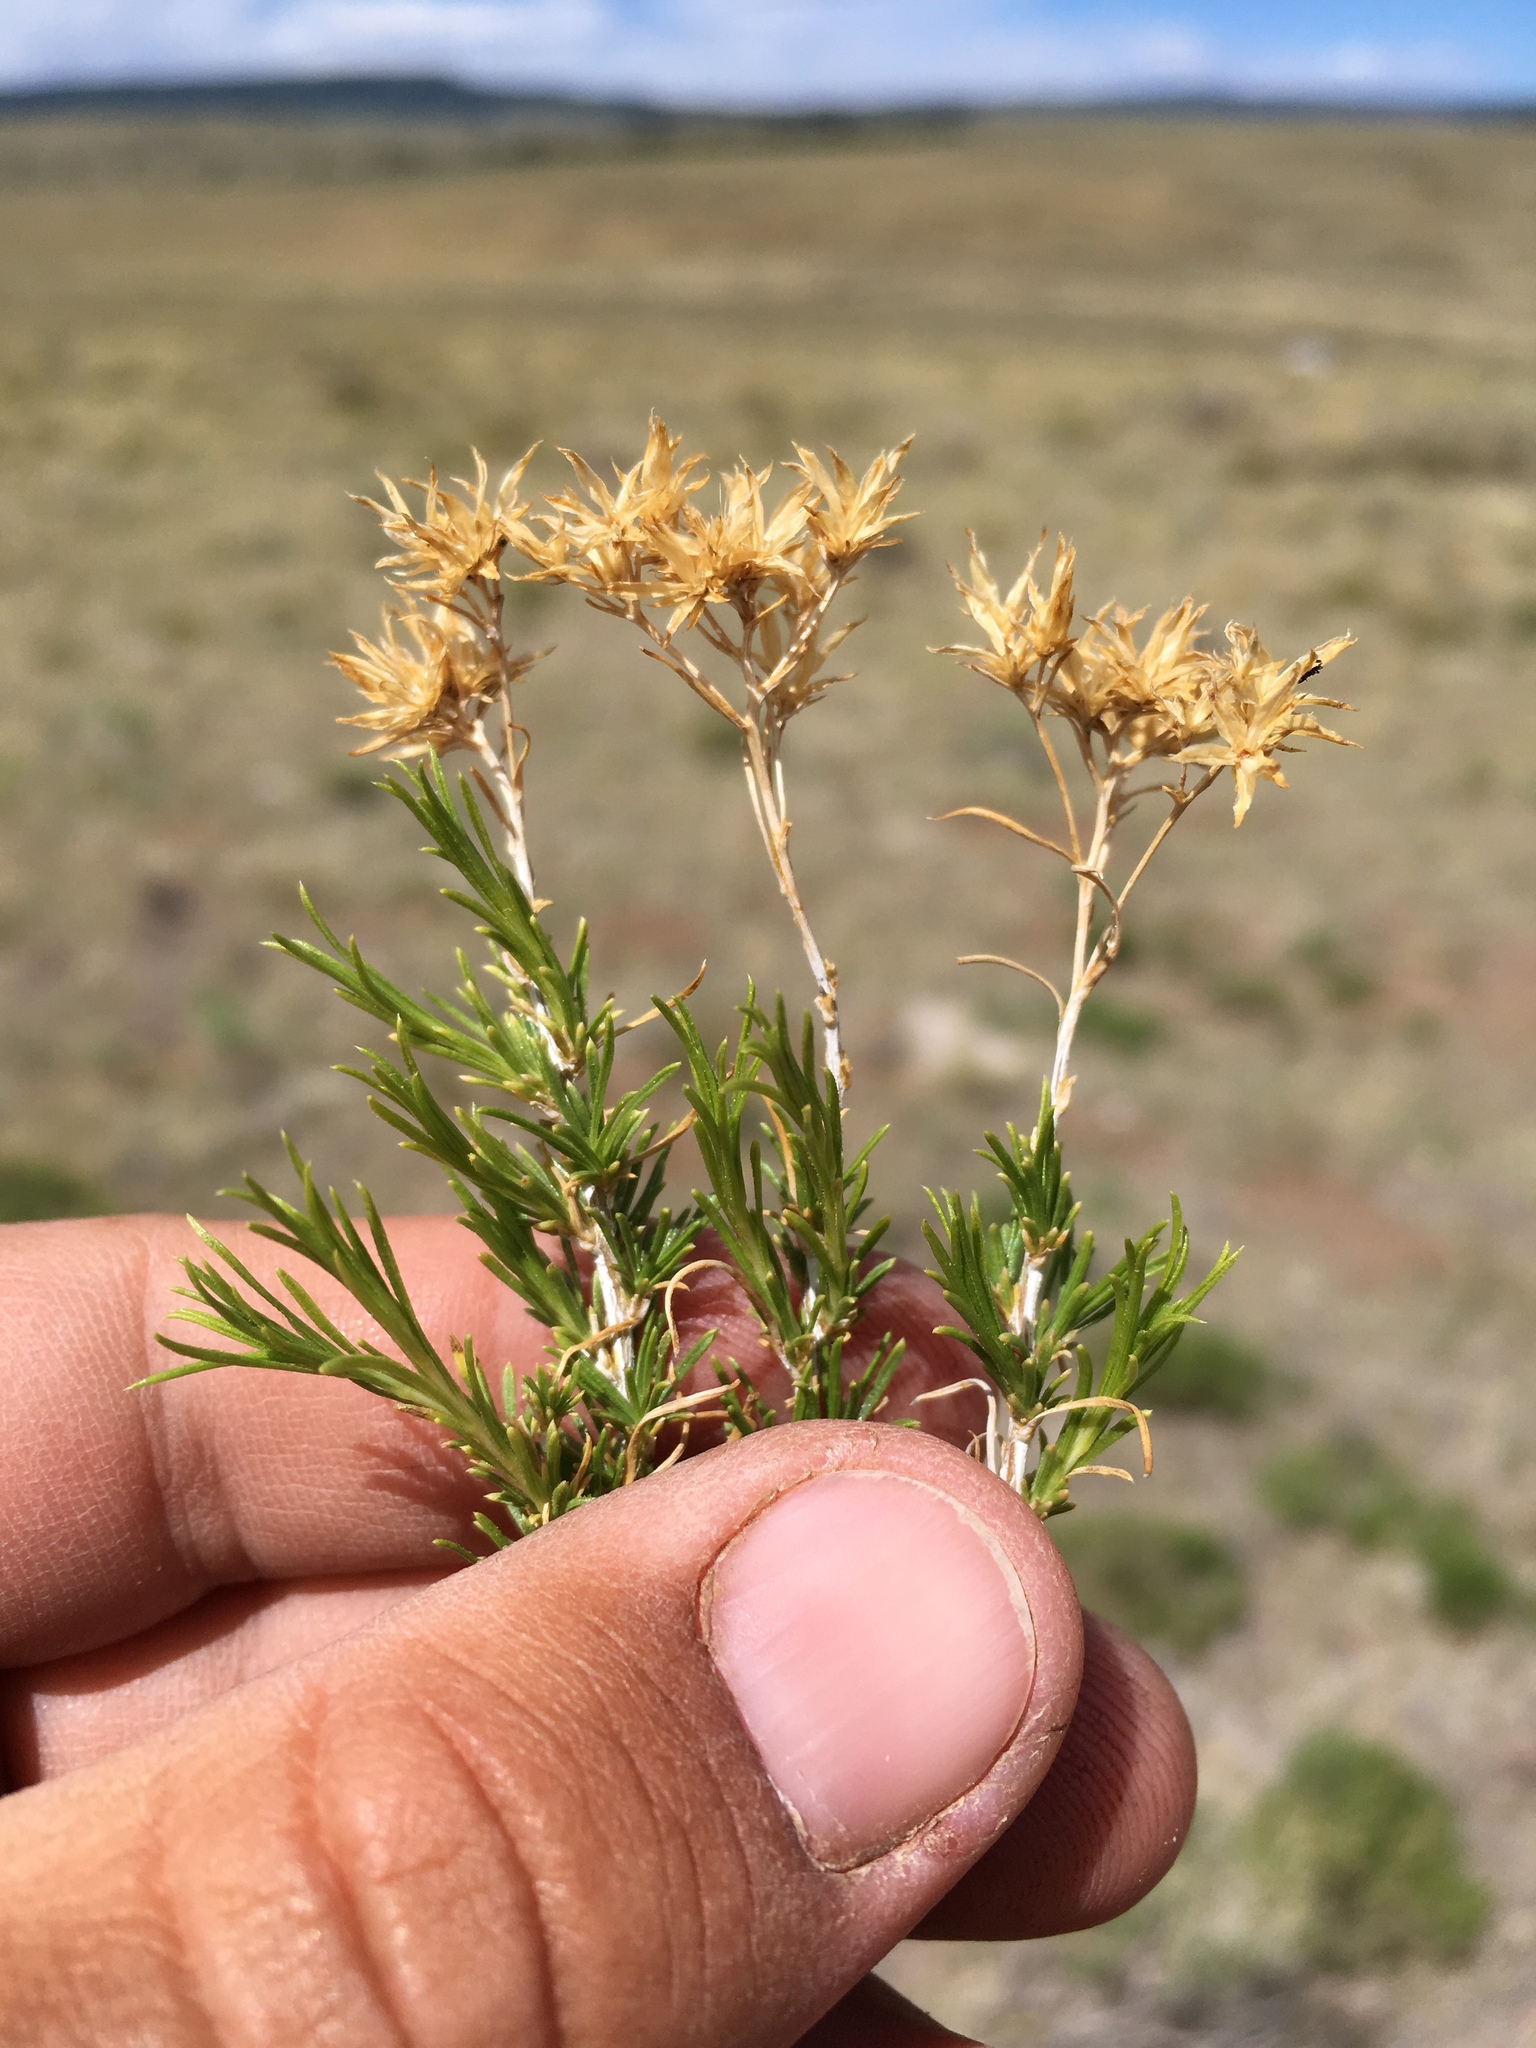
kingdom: Plantae
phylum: Tracheophyta
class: Magnoliopsida
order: Asterales
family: Asteraceae
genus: Chrysothamnus
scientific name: Chrysothamnus greenei
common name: Greene's rabbitbrush
